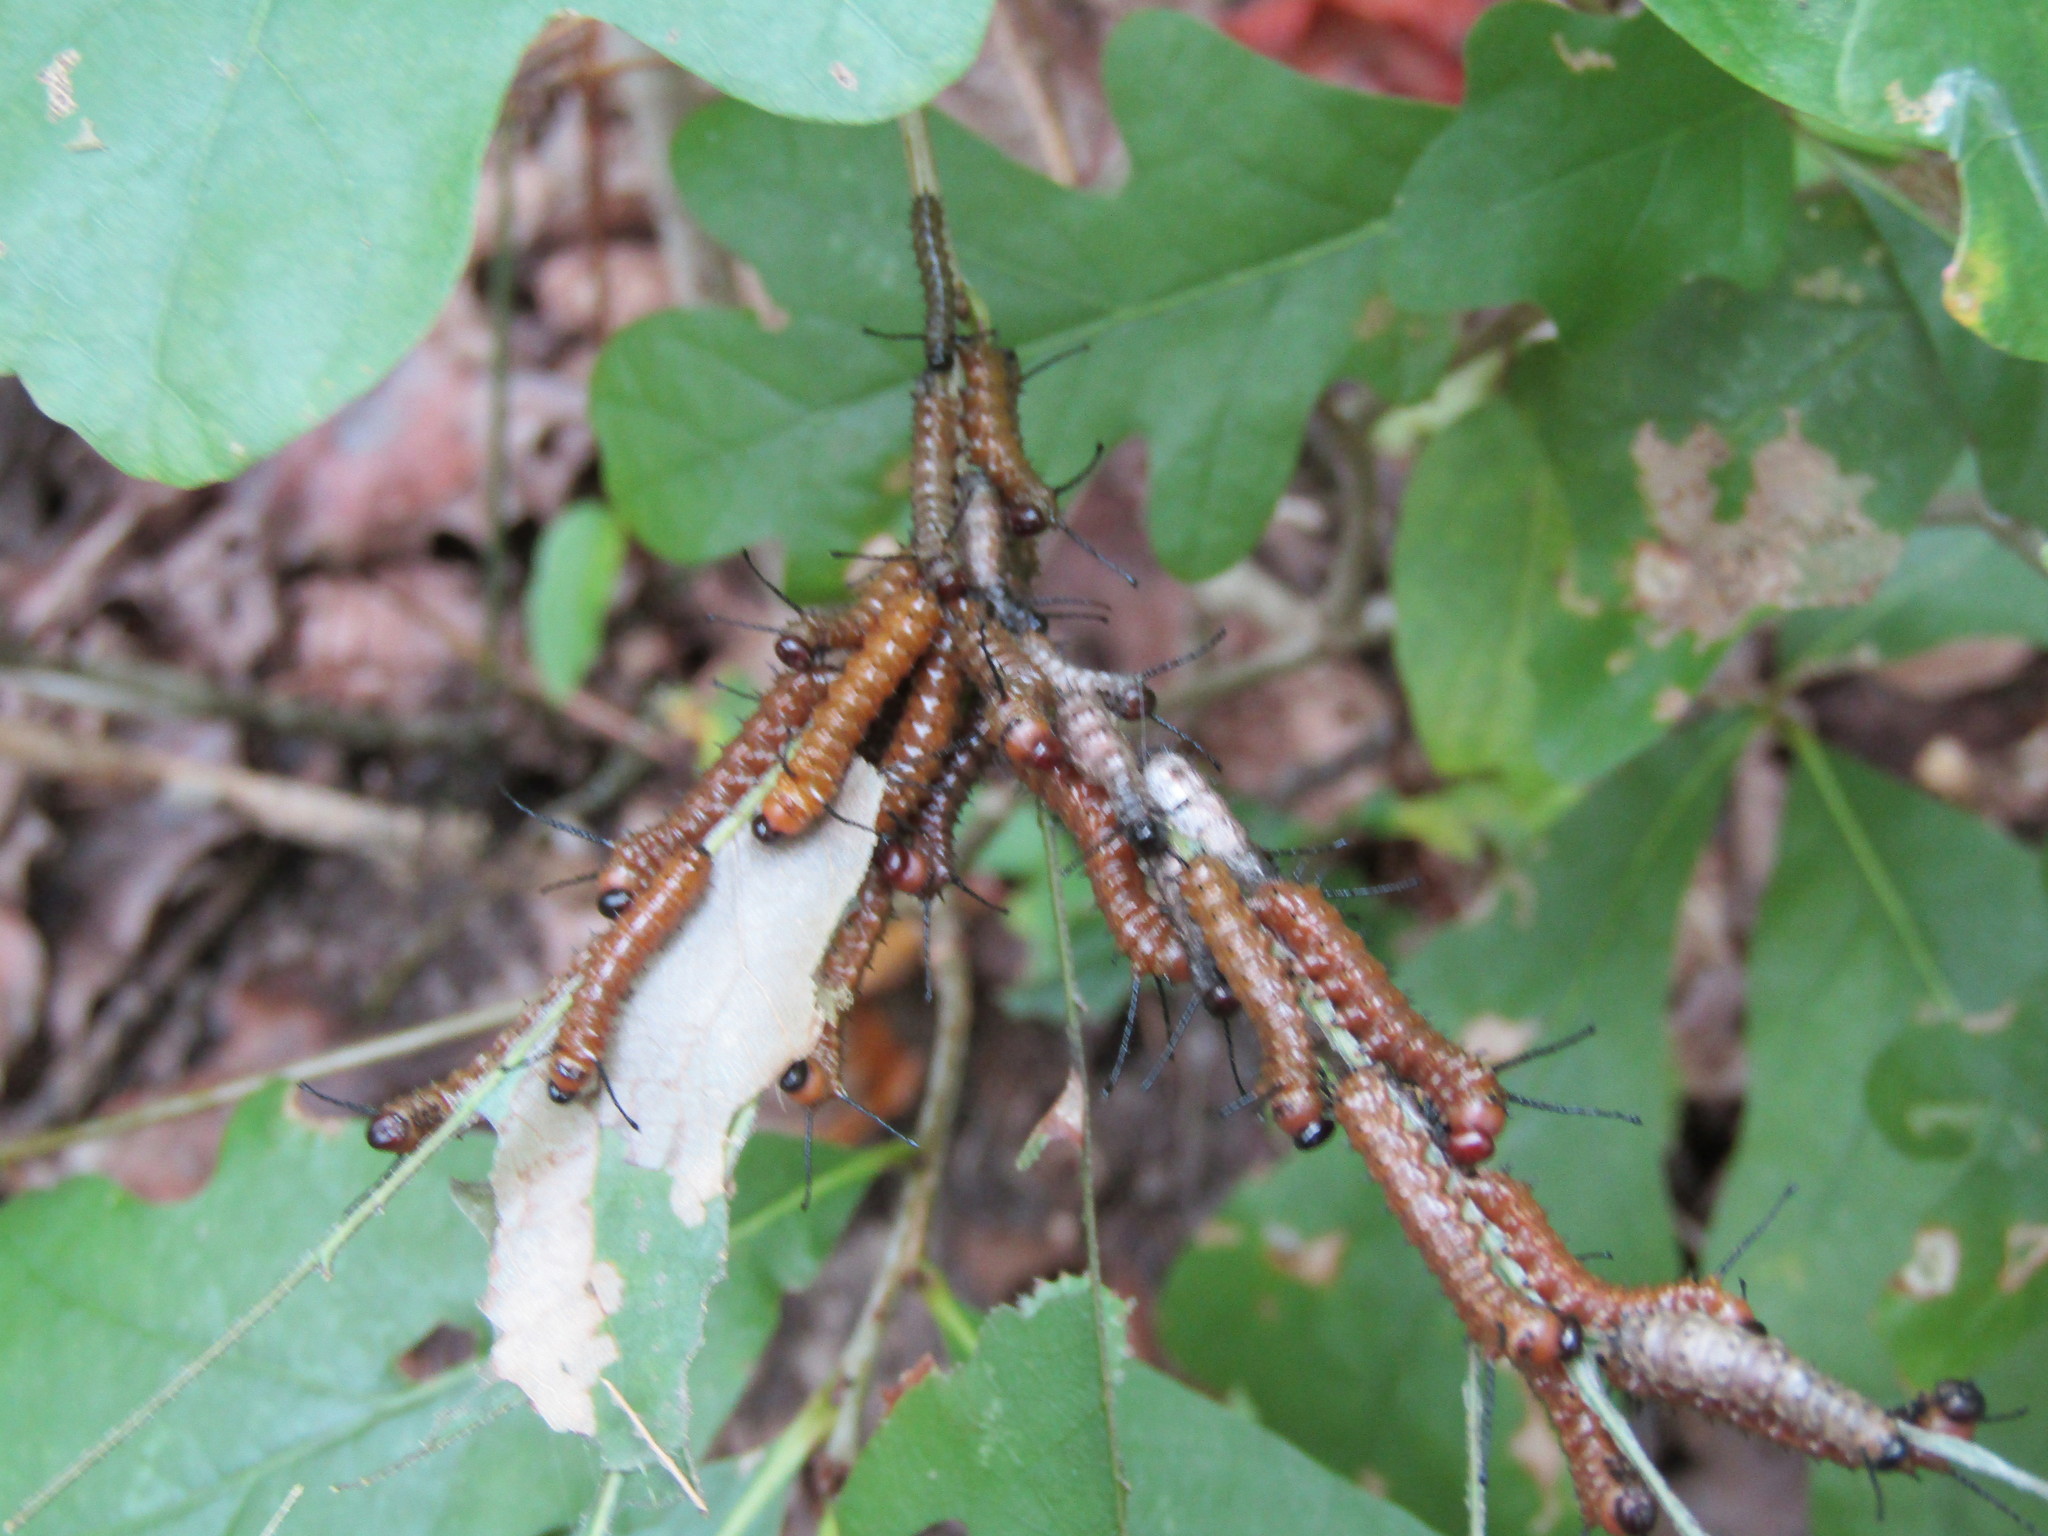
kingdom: Animalia
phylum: Arthropoda
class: Insecta
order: Lepidoptera
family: Saturniidae
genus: Anisota
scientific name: Anisota stigma
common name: Spiny oakworm moth
